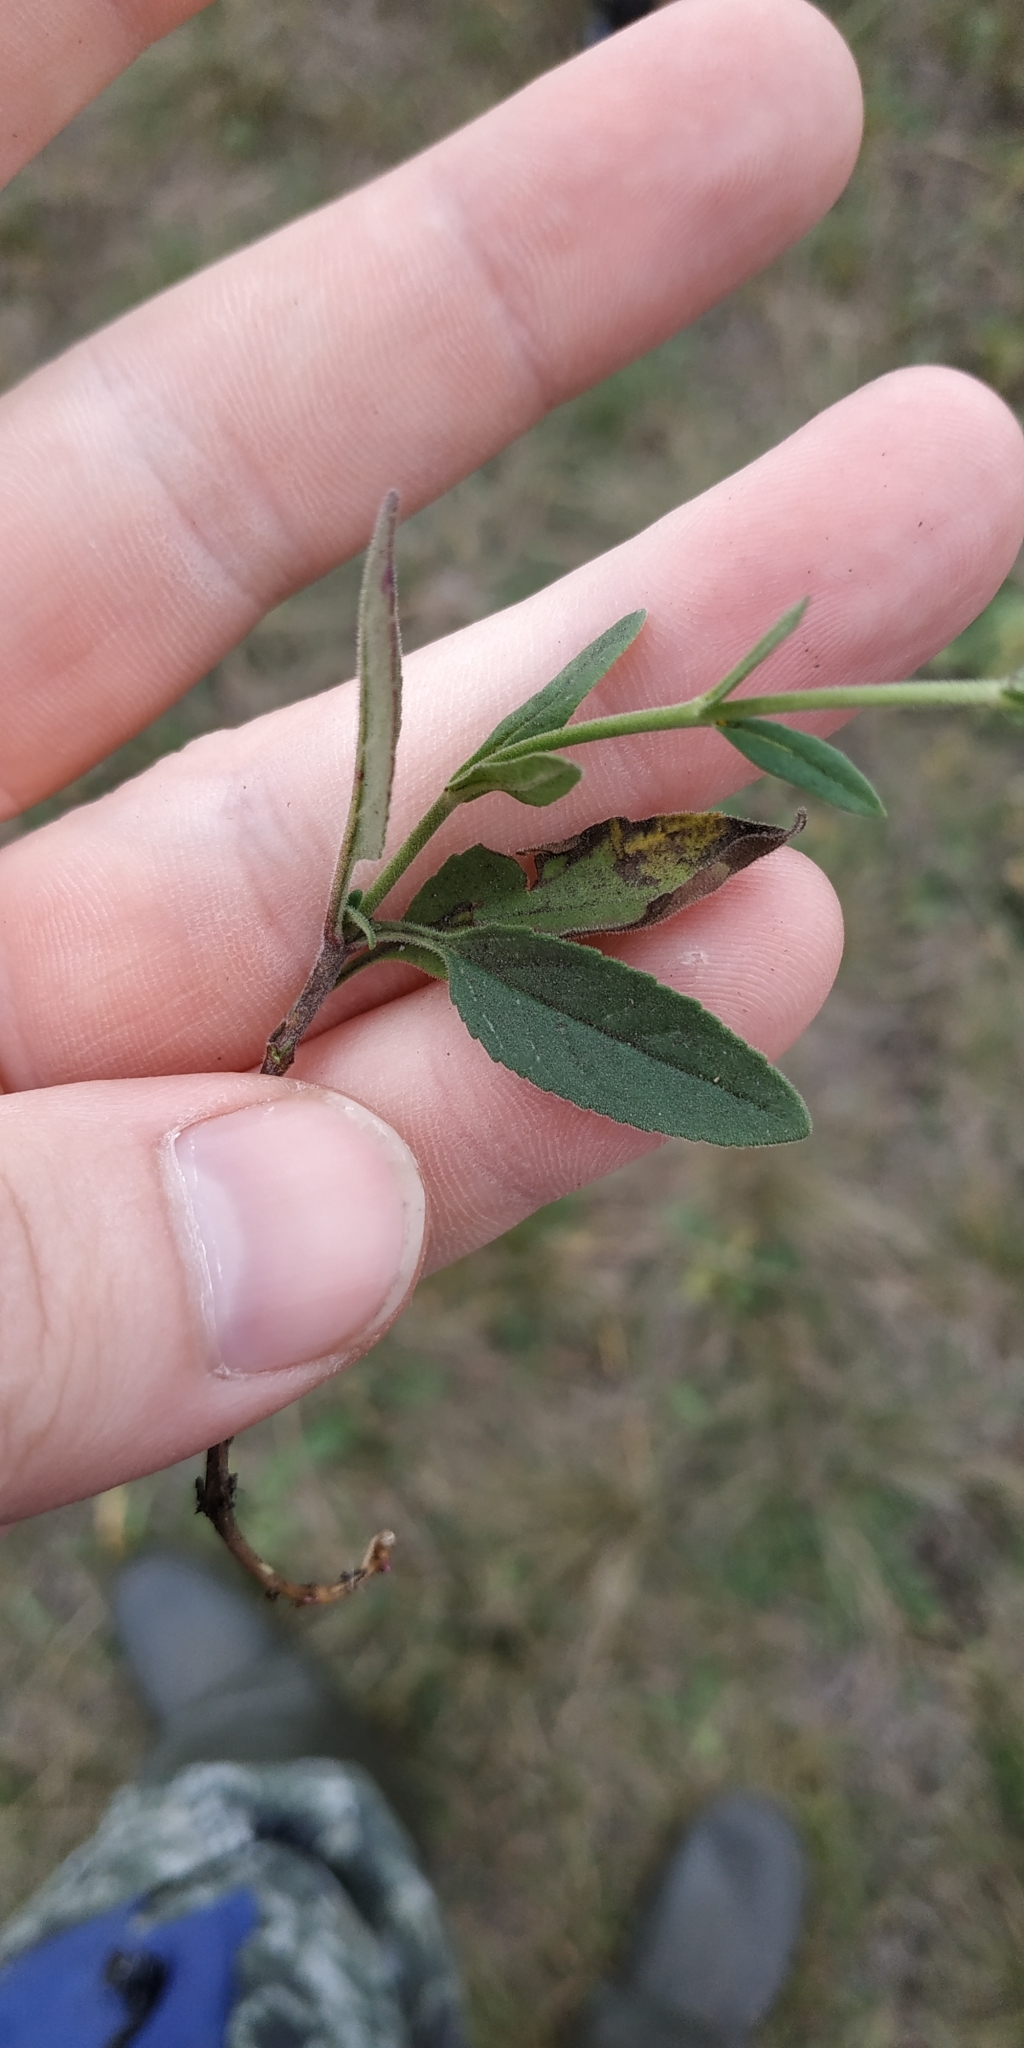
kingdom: Plantae
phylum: Tracheophyta
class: Magnoliopsida
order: Lamiales
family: Plantaginaceae
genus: Veronica
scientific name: Veronica spicata
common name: Spiked speedwell
